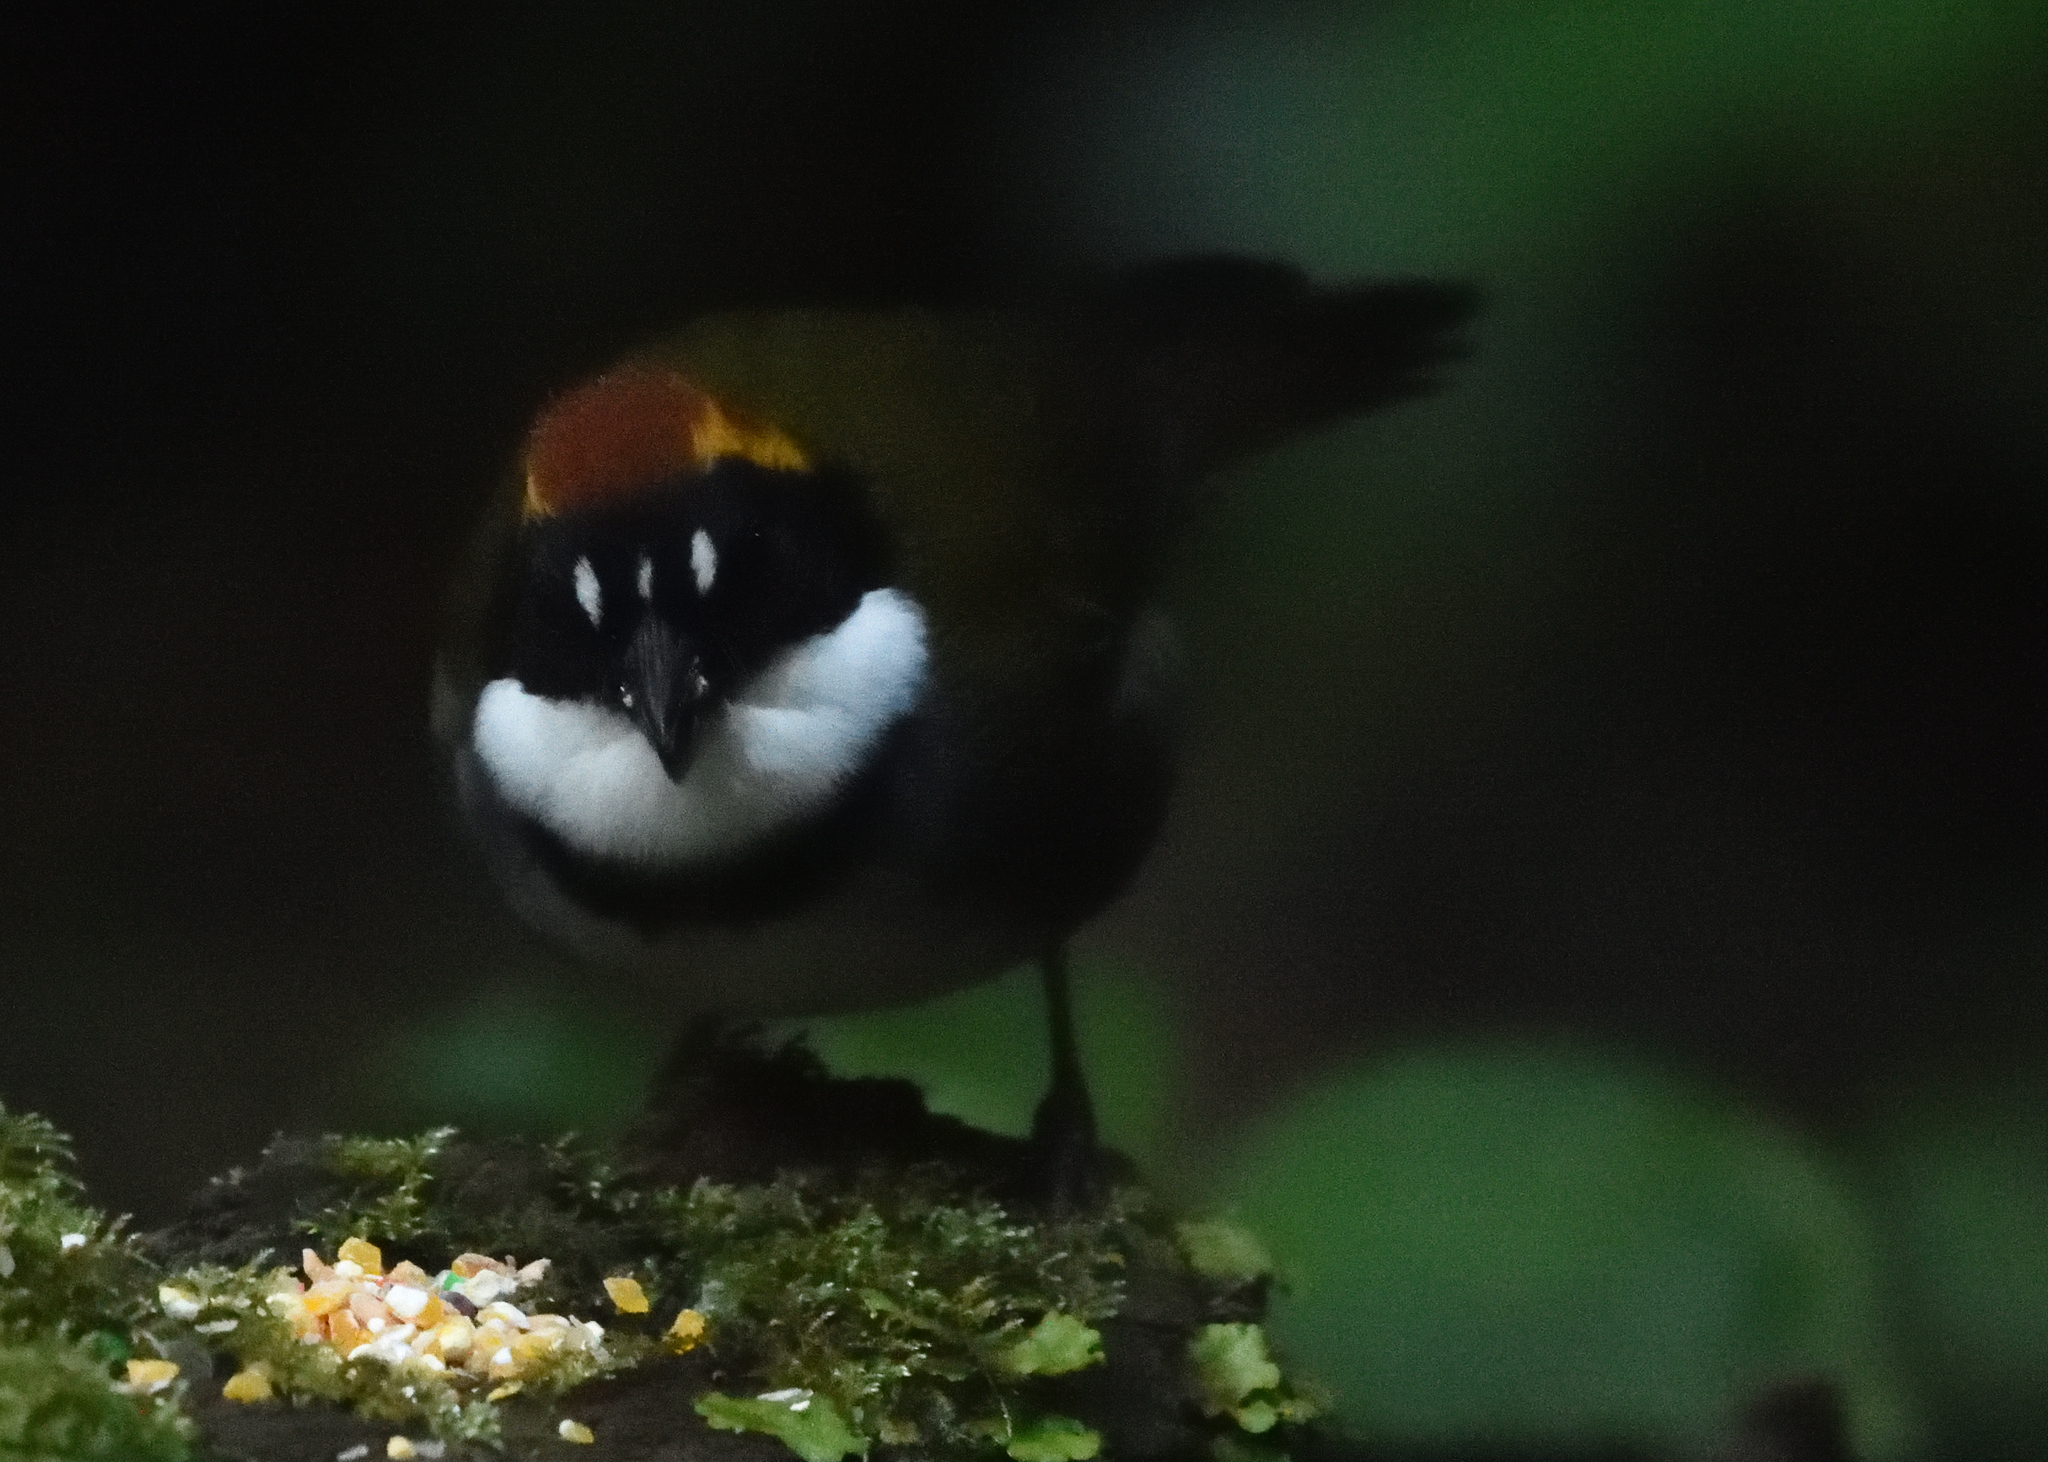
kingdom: Animalia
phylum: Chordata
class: Aves
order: Passeriformes
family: Passerellidae
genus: Arremon
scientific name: Arremon brunneinucha
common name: Chestnut-capped brushfinch
